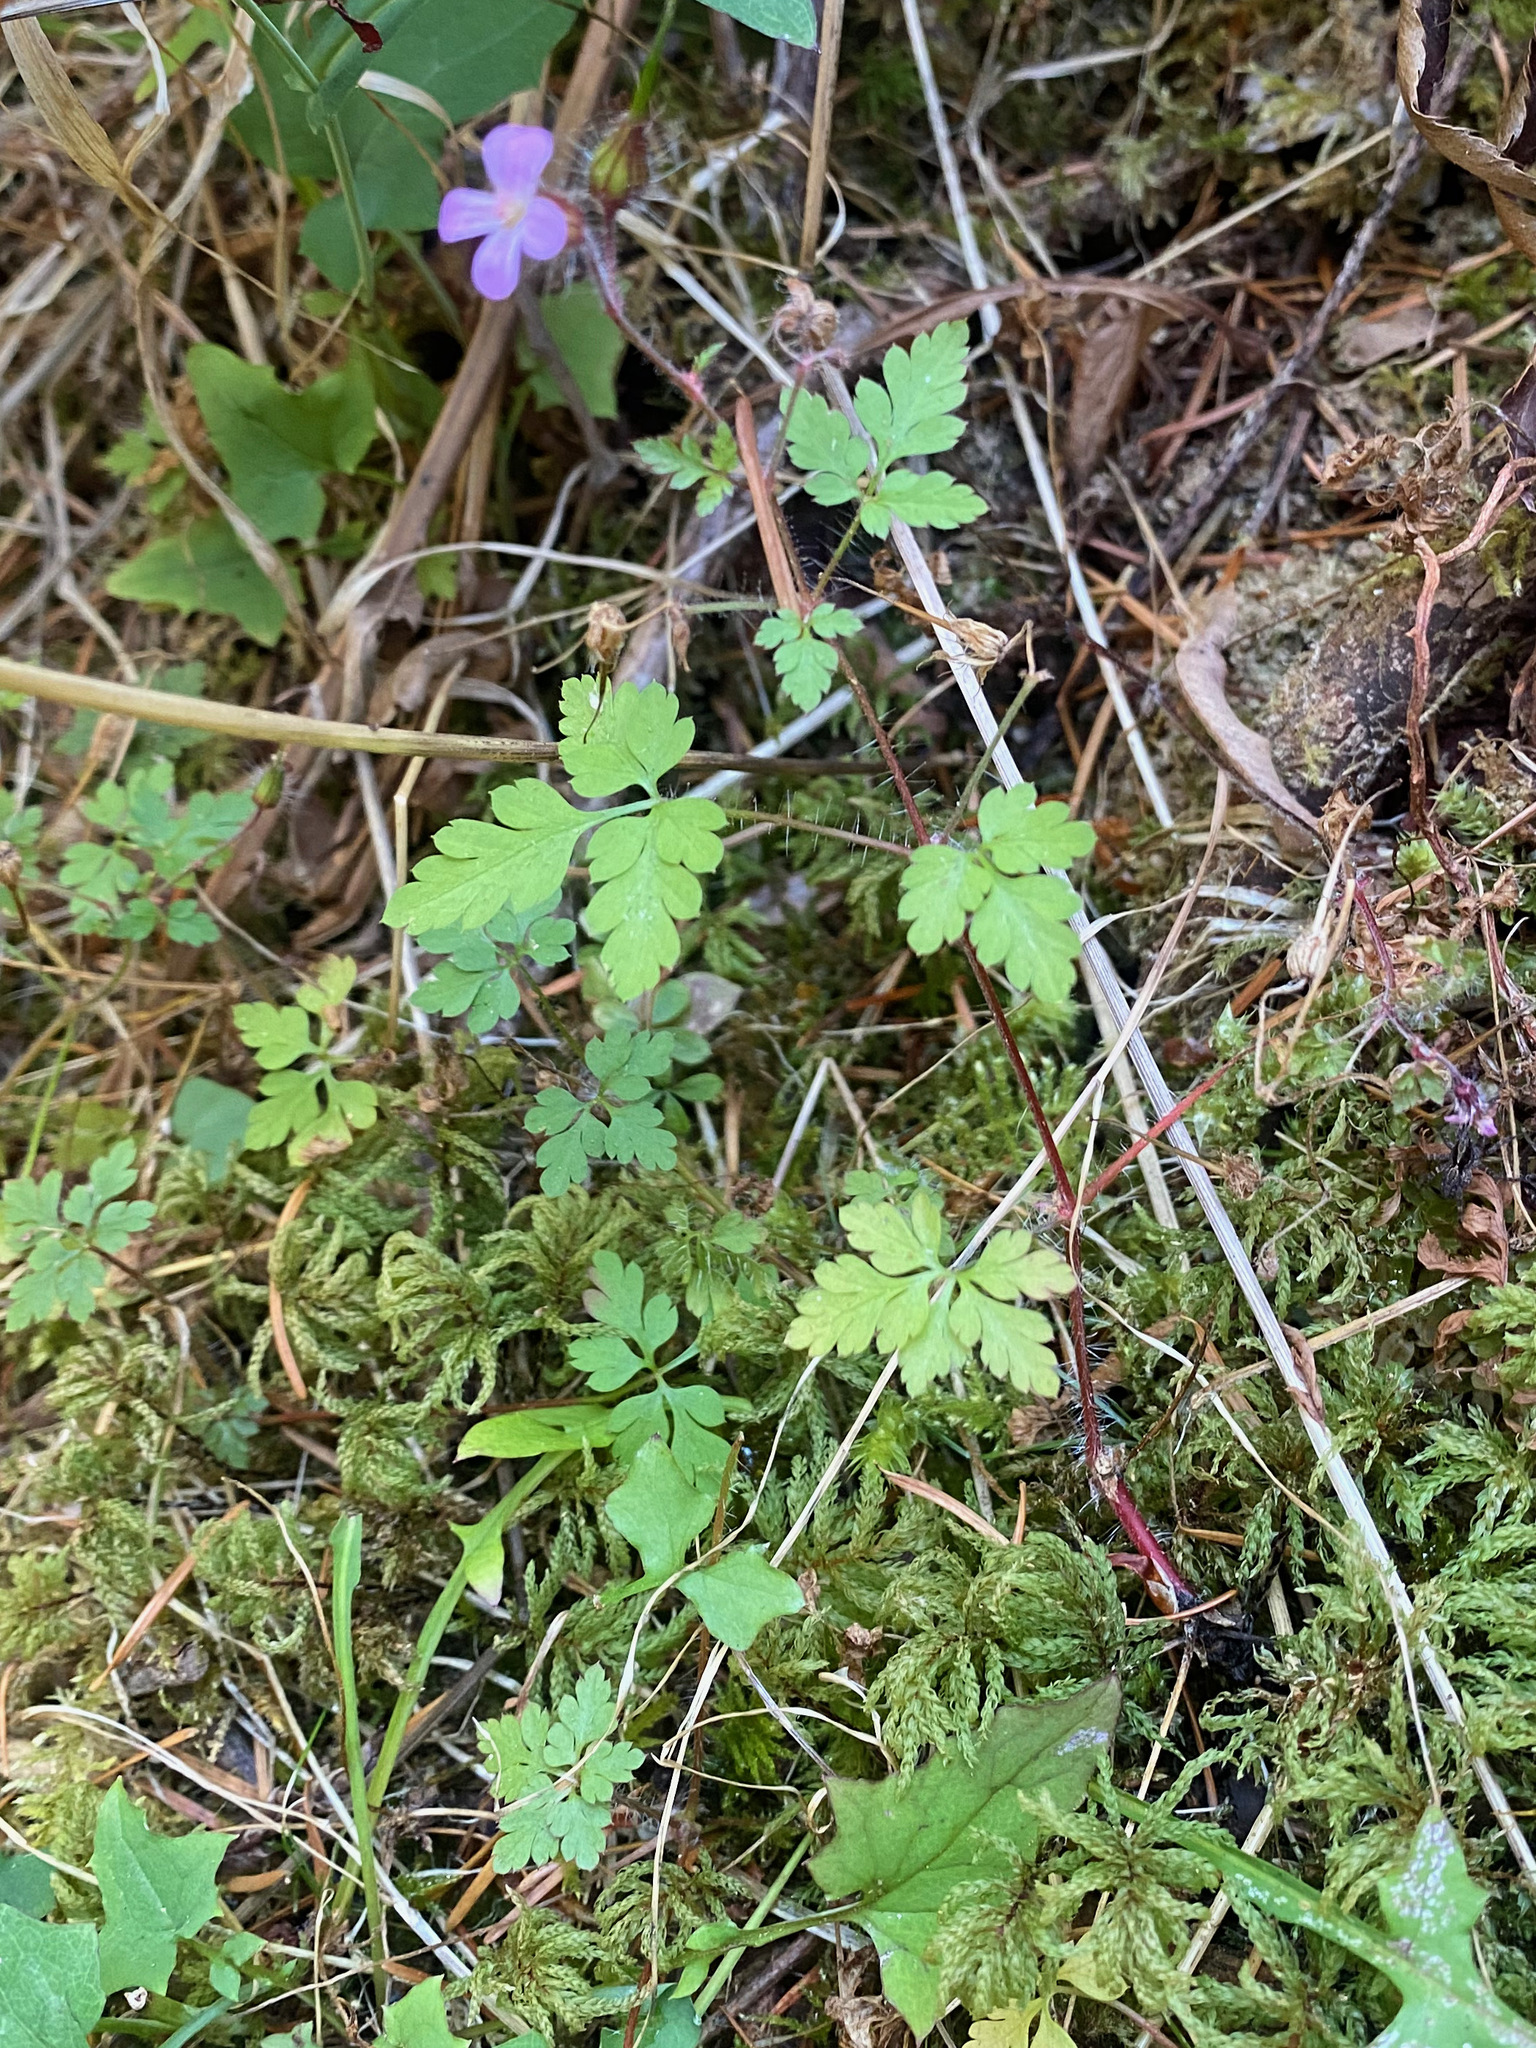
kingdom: Plantae
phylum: Tracheophyta
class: Magnoliopsida
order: Geraniales
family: Geraniaceae
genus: Geranium
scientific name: Geranium robertianum
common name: Herb-robert
